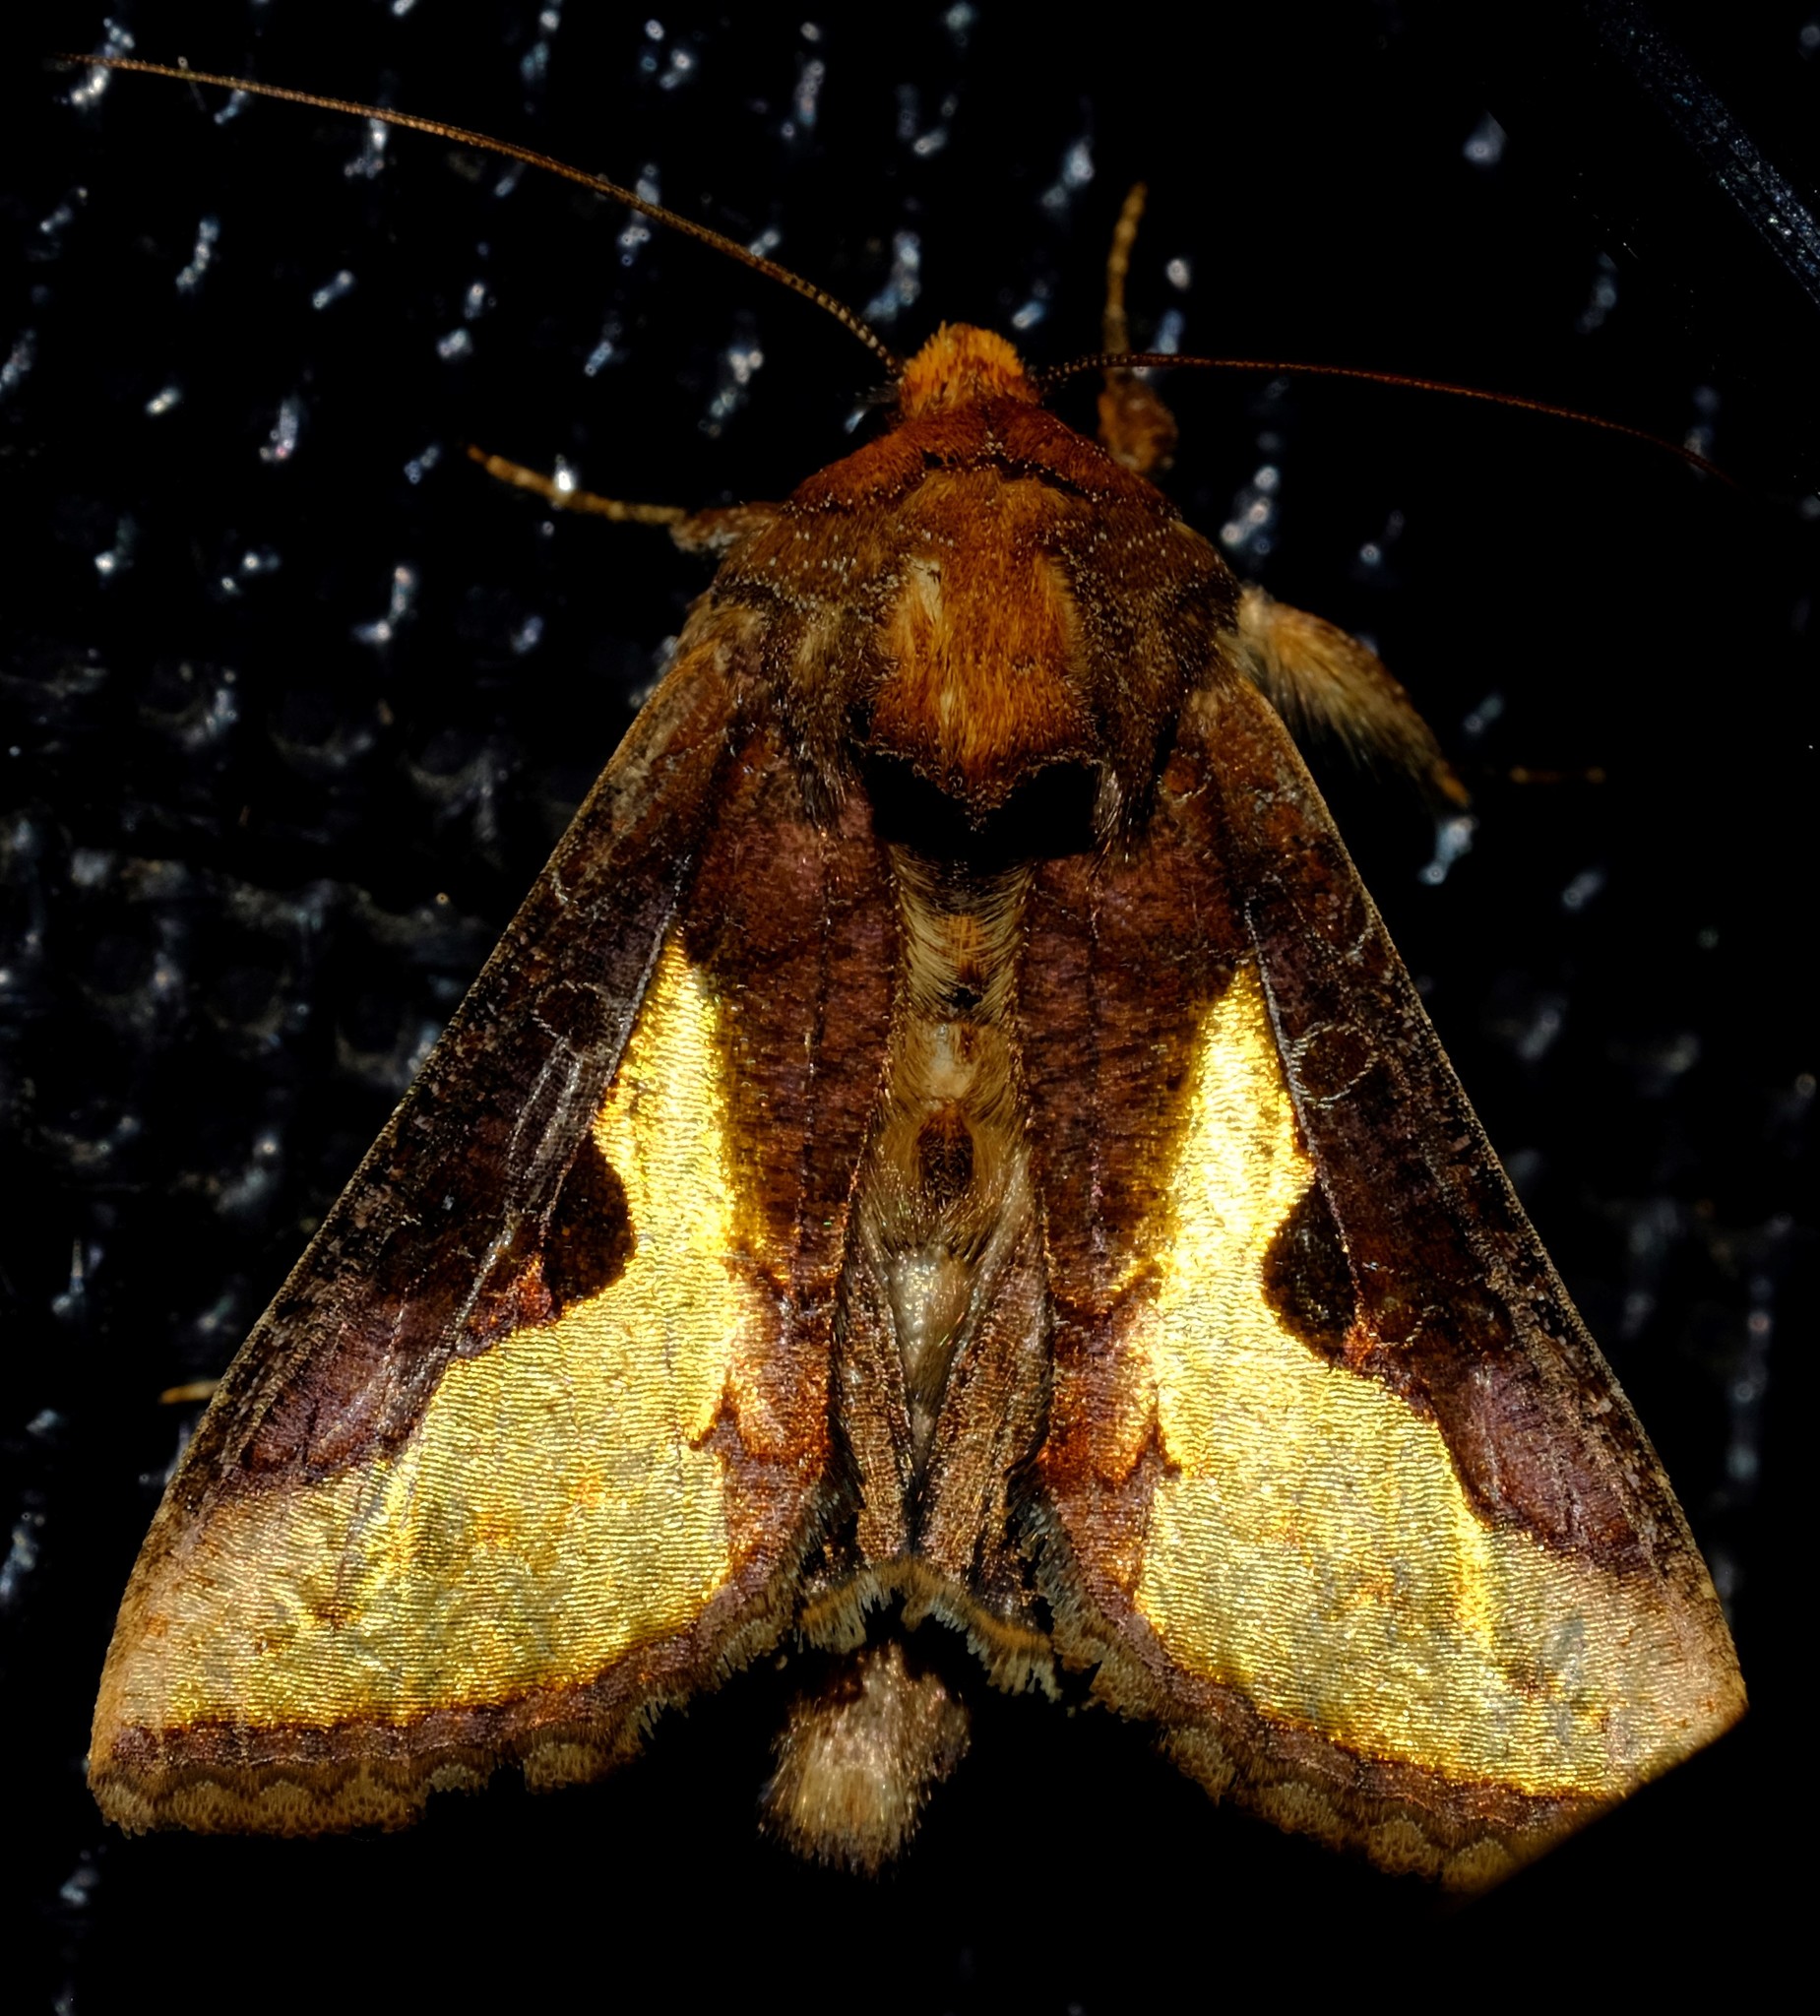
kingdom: Animalia
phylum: Arthropoda
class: Insecta
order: Lepidoptera
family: Noctuidae
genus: Thysanoplusia
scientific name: Thysanoplusia orichalcea
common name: Slender burnished brass, golden plusia
